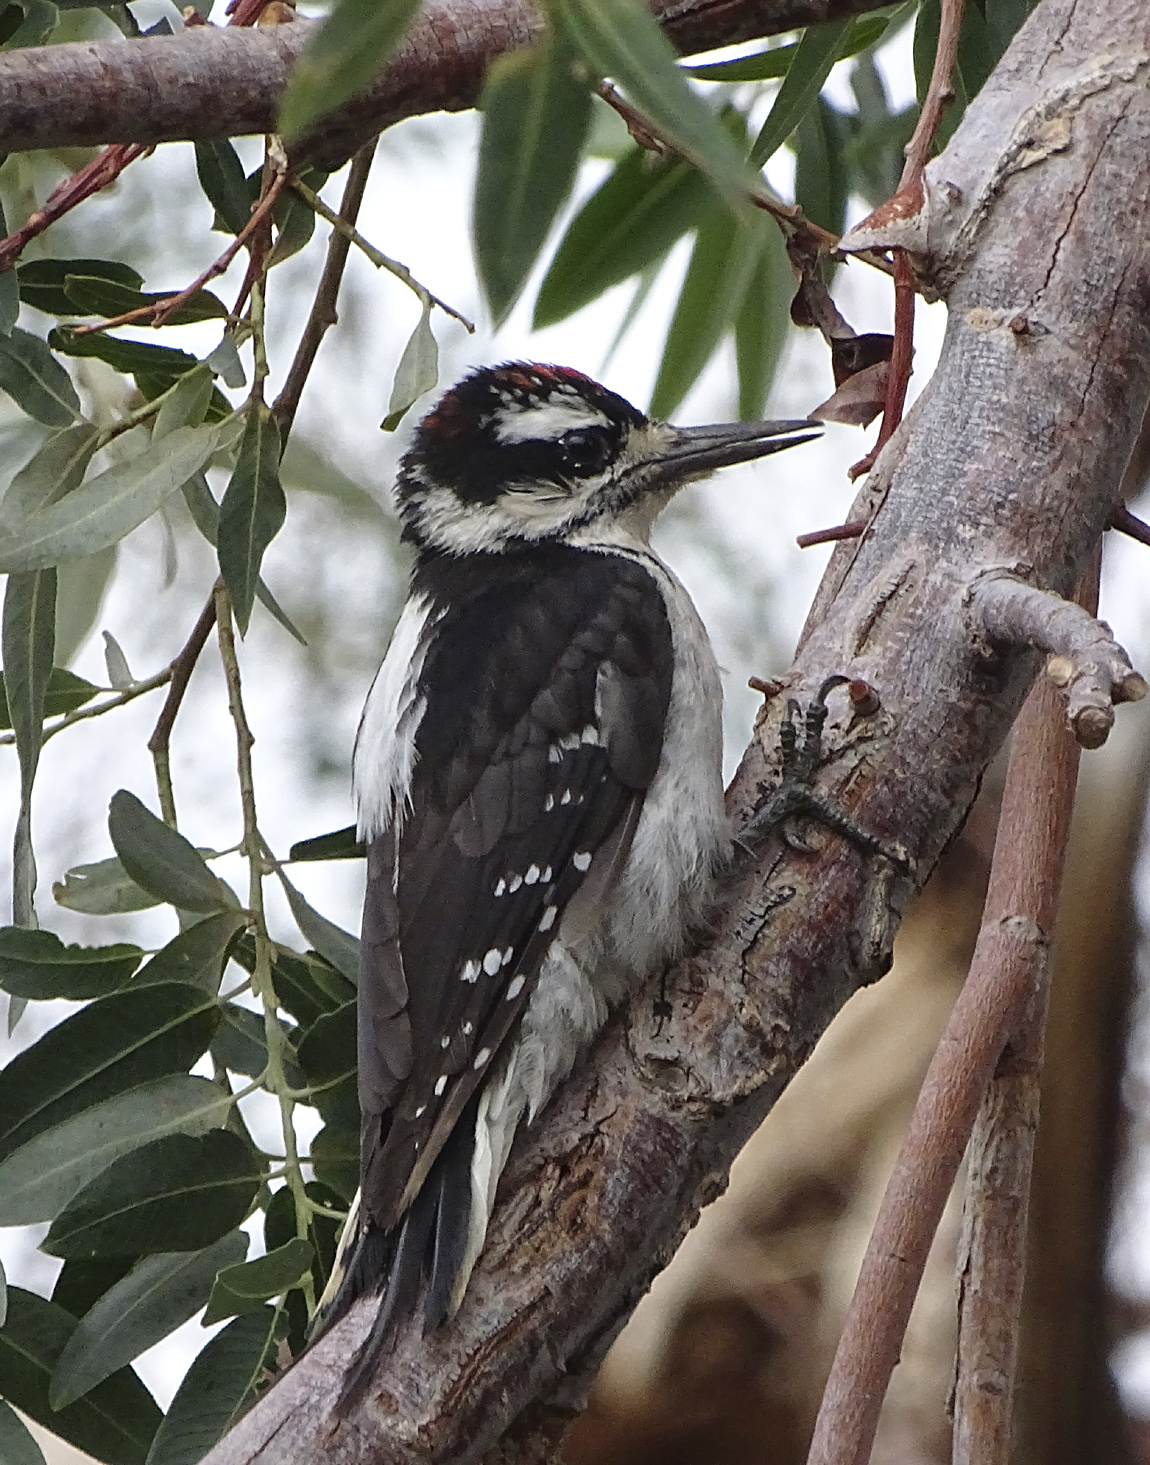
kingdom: Animalia
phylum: Chordata
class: Aves
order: Piciformes
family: Picidae
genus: Leuconotopicus
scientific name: Leuconotopicus villosus
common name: Hairy woodpecker
